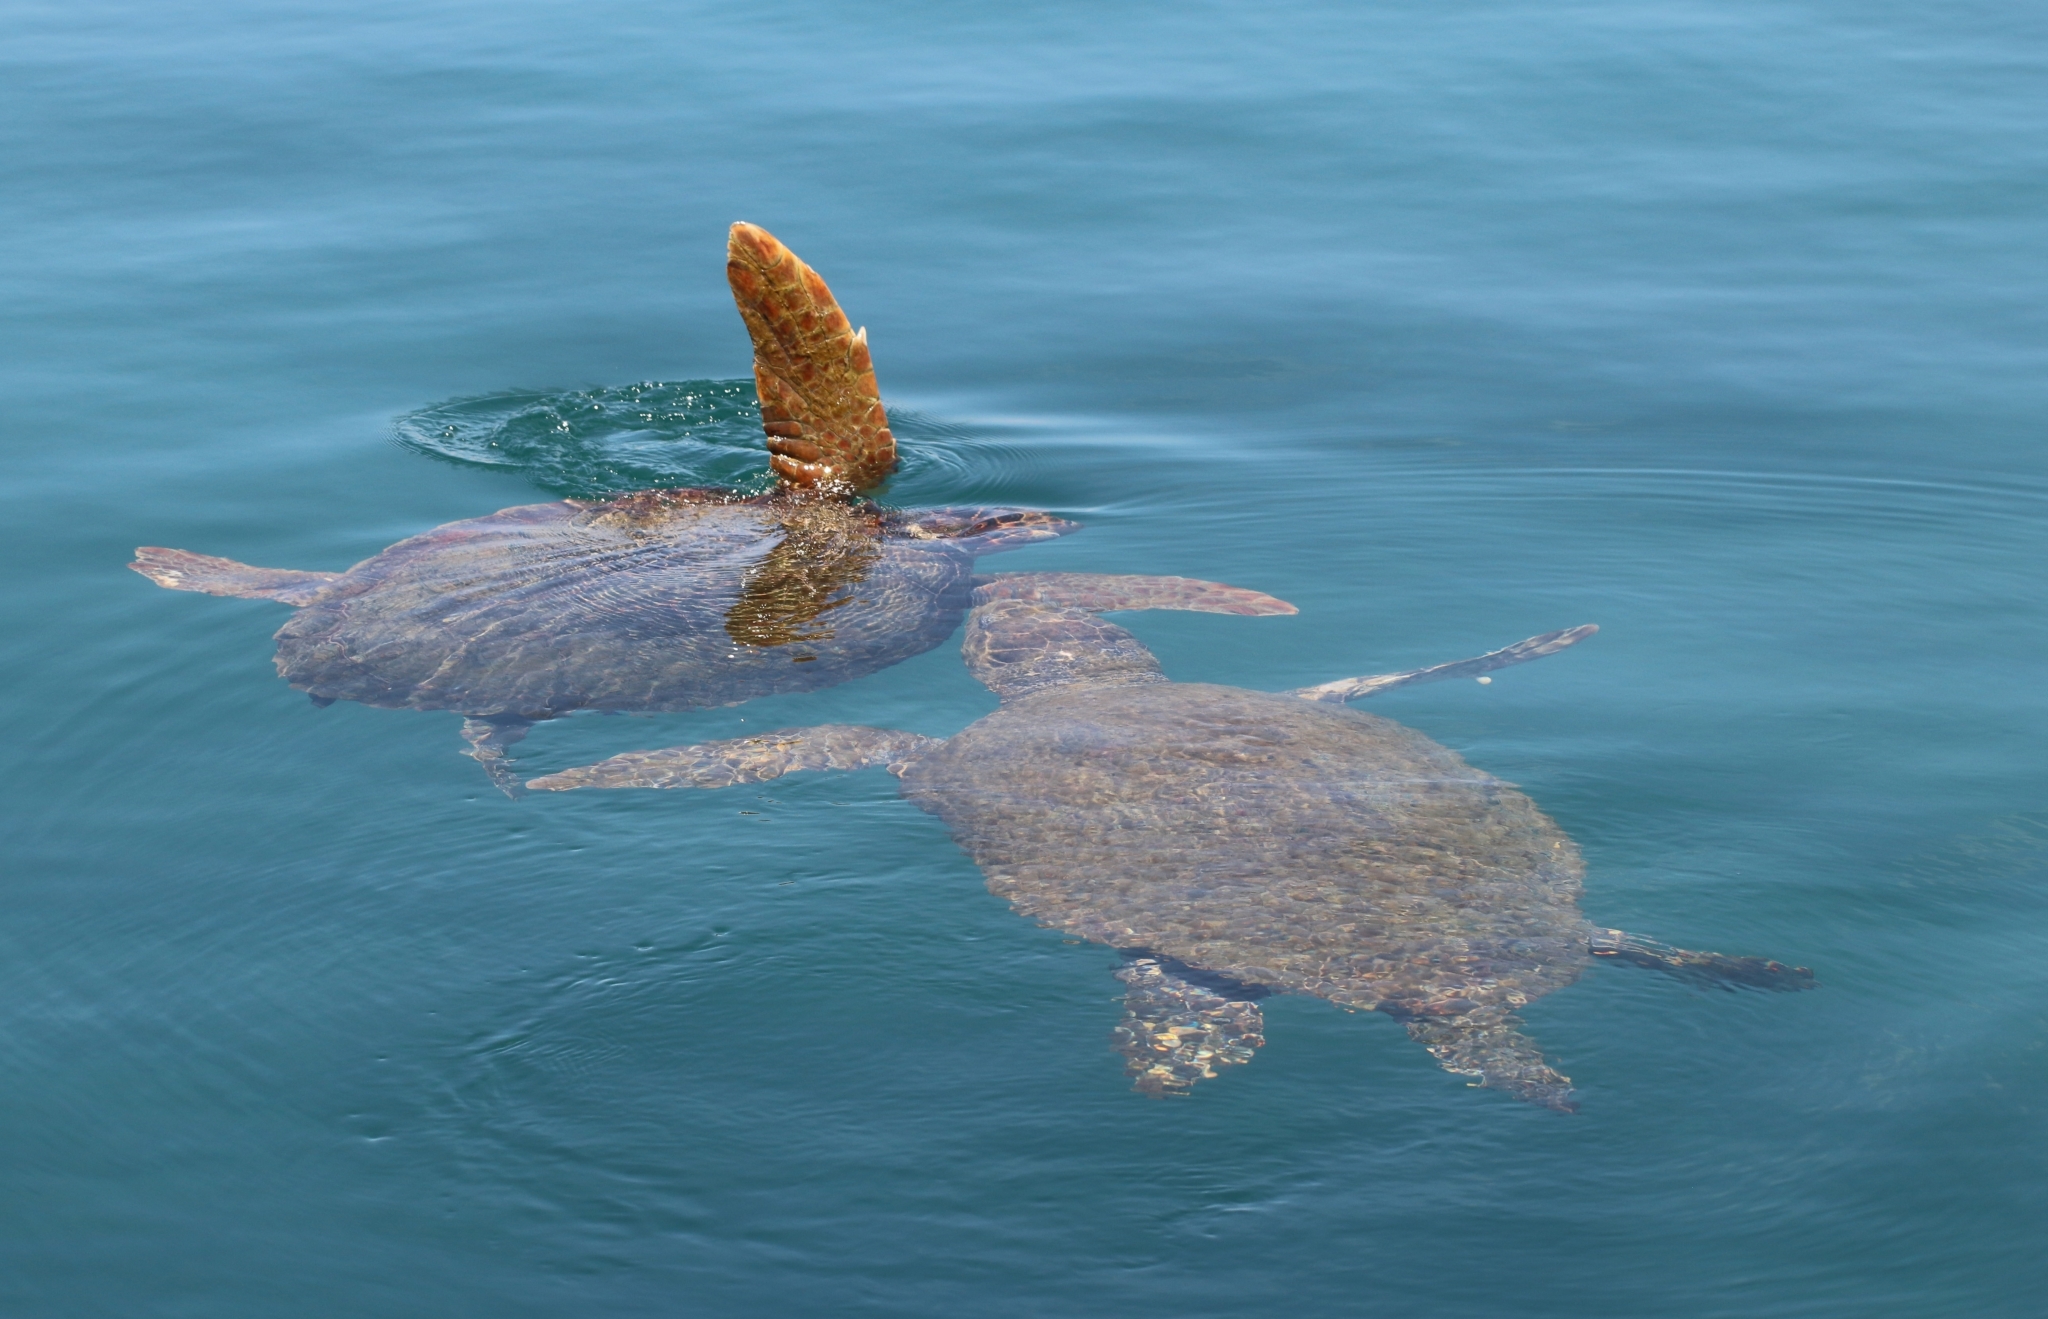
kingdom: Animalia
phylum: Chordata
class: Testudines
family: Cheloniidae
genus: Caretta
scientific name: Caretta caretta
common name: Loggerhead sea turtle
